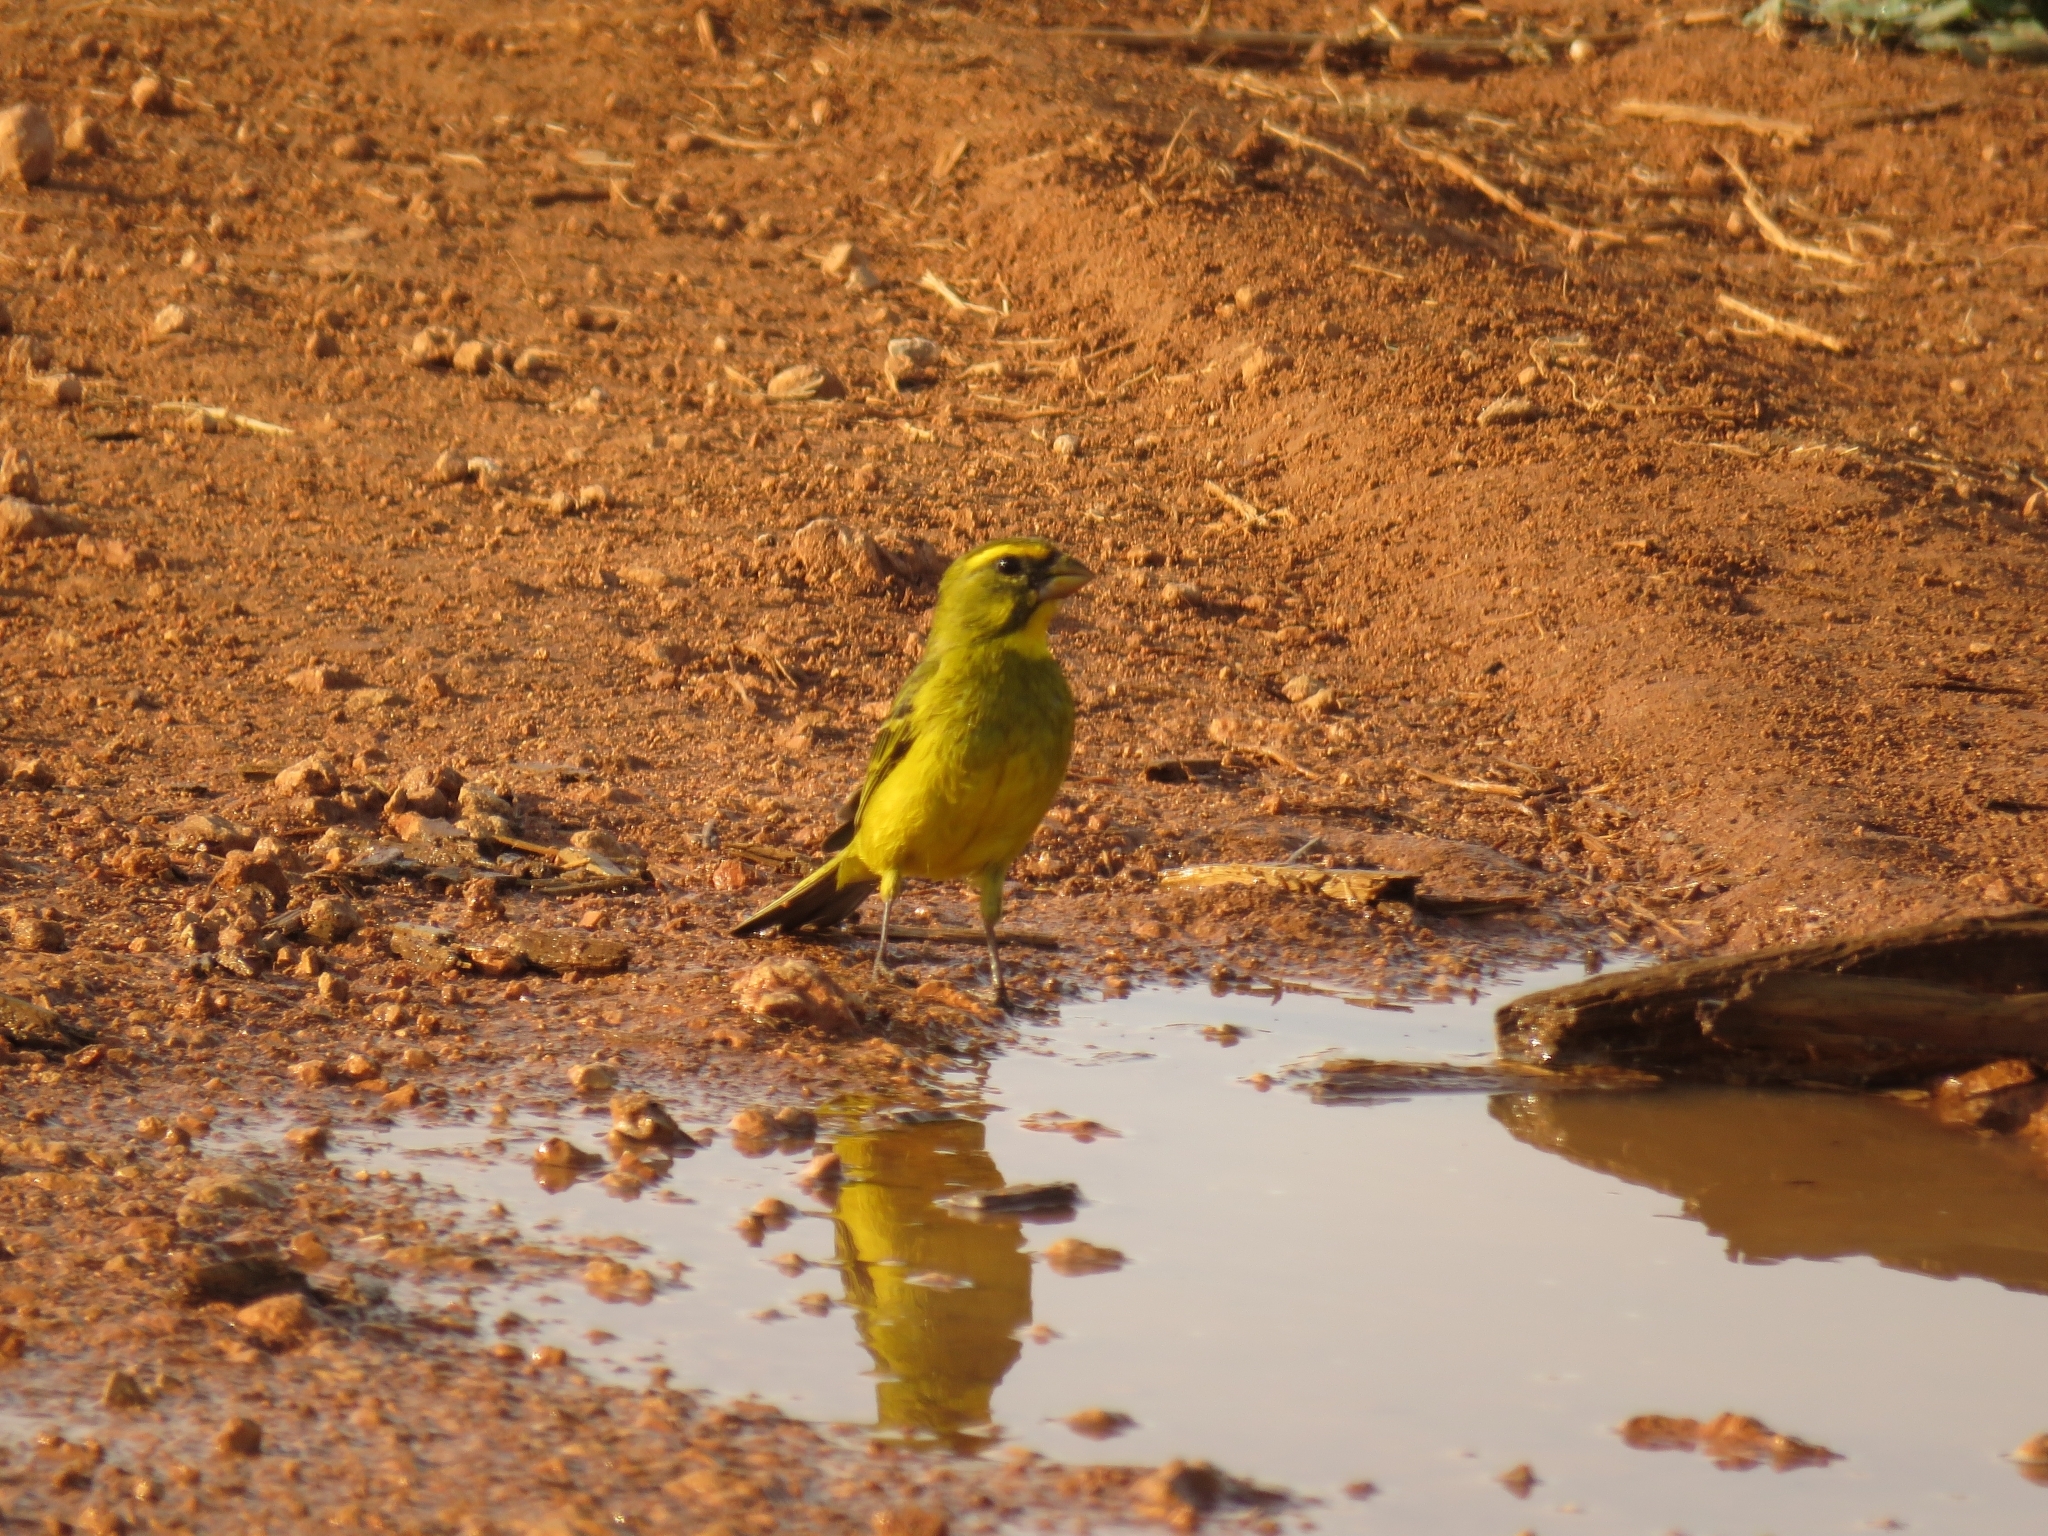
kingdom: Animalia
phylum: Chordata
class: Aves
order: Passeriformes
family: Fringillidae
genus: Crithagra
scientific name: Crithagra sulphurata
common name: Brimstone canary
